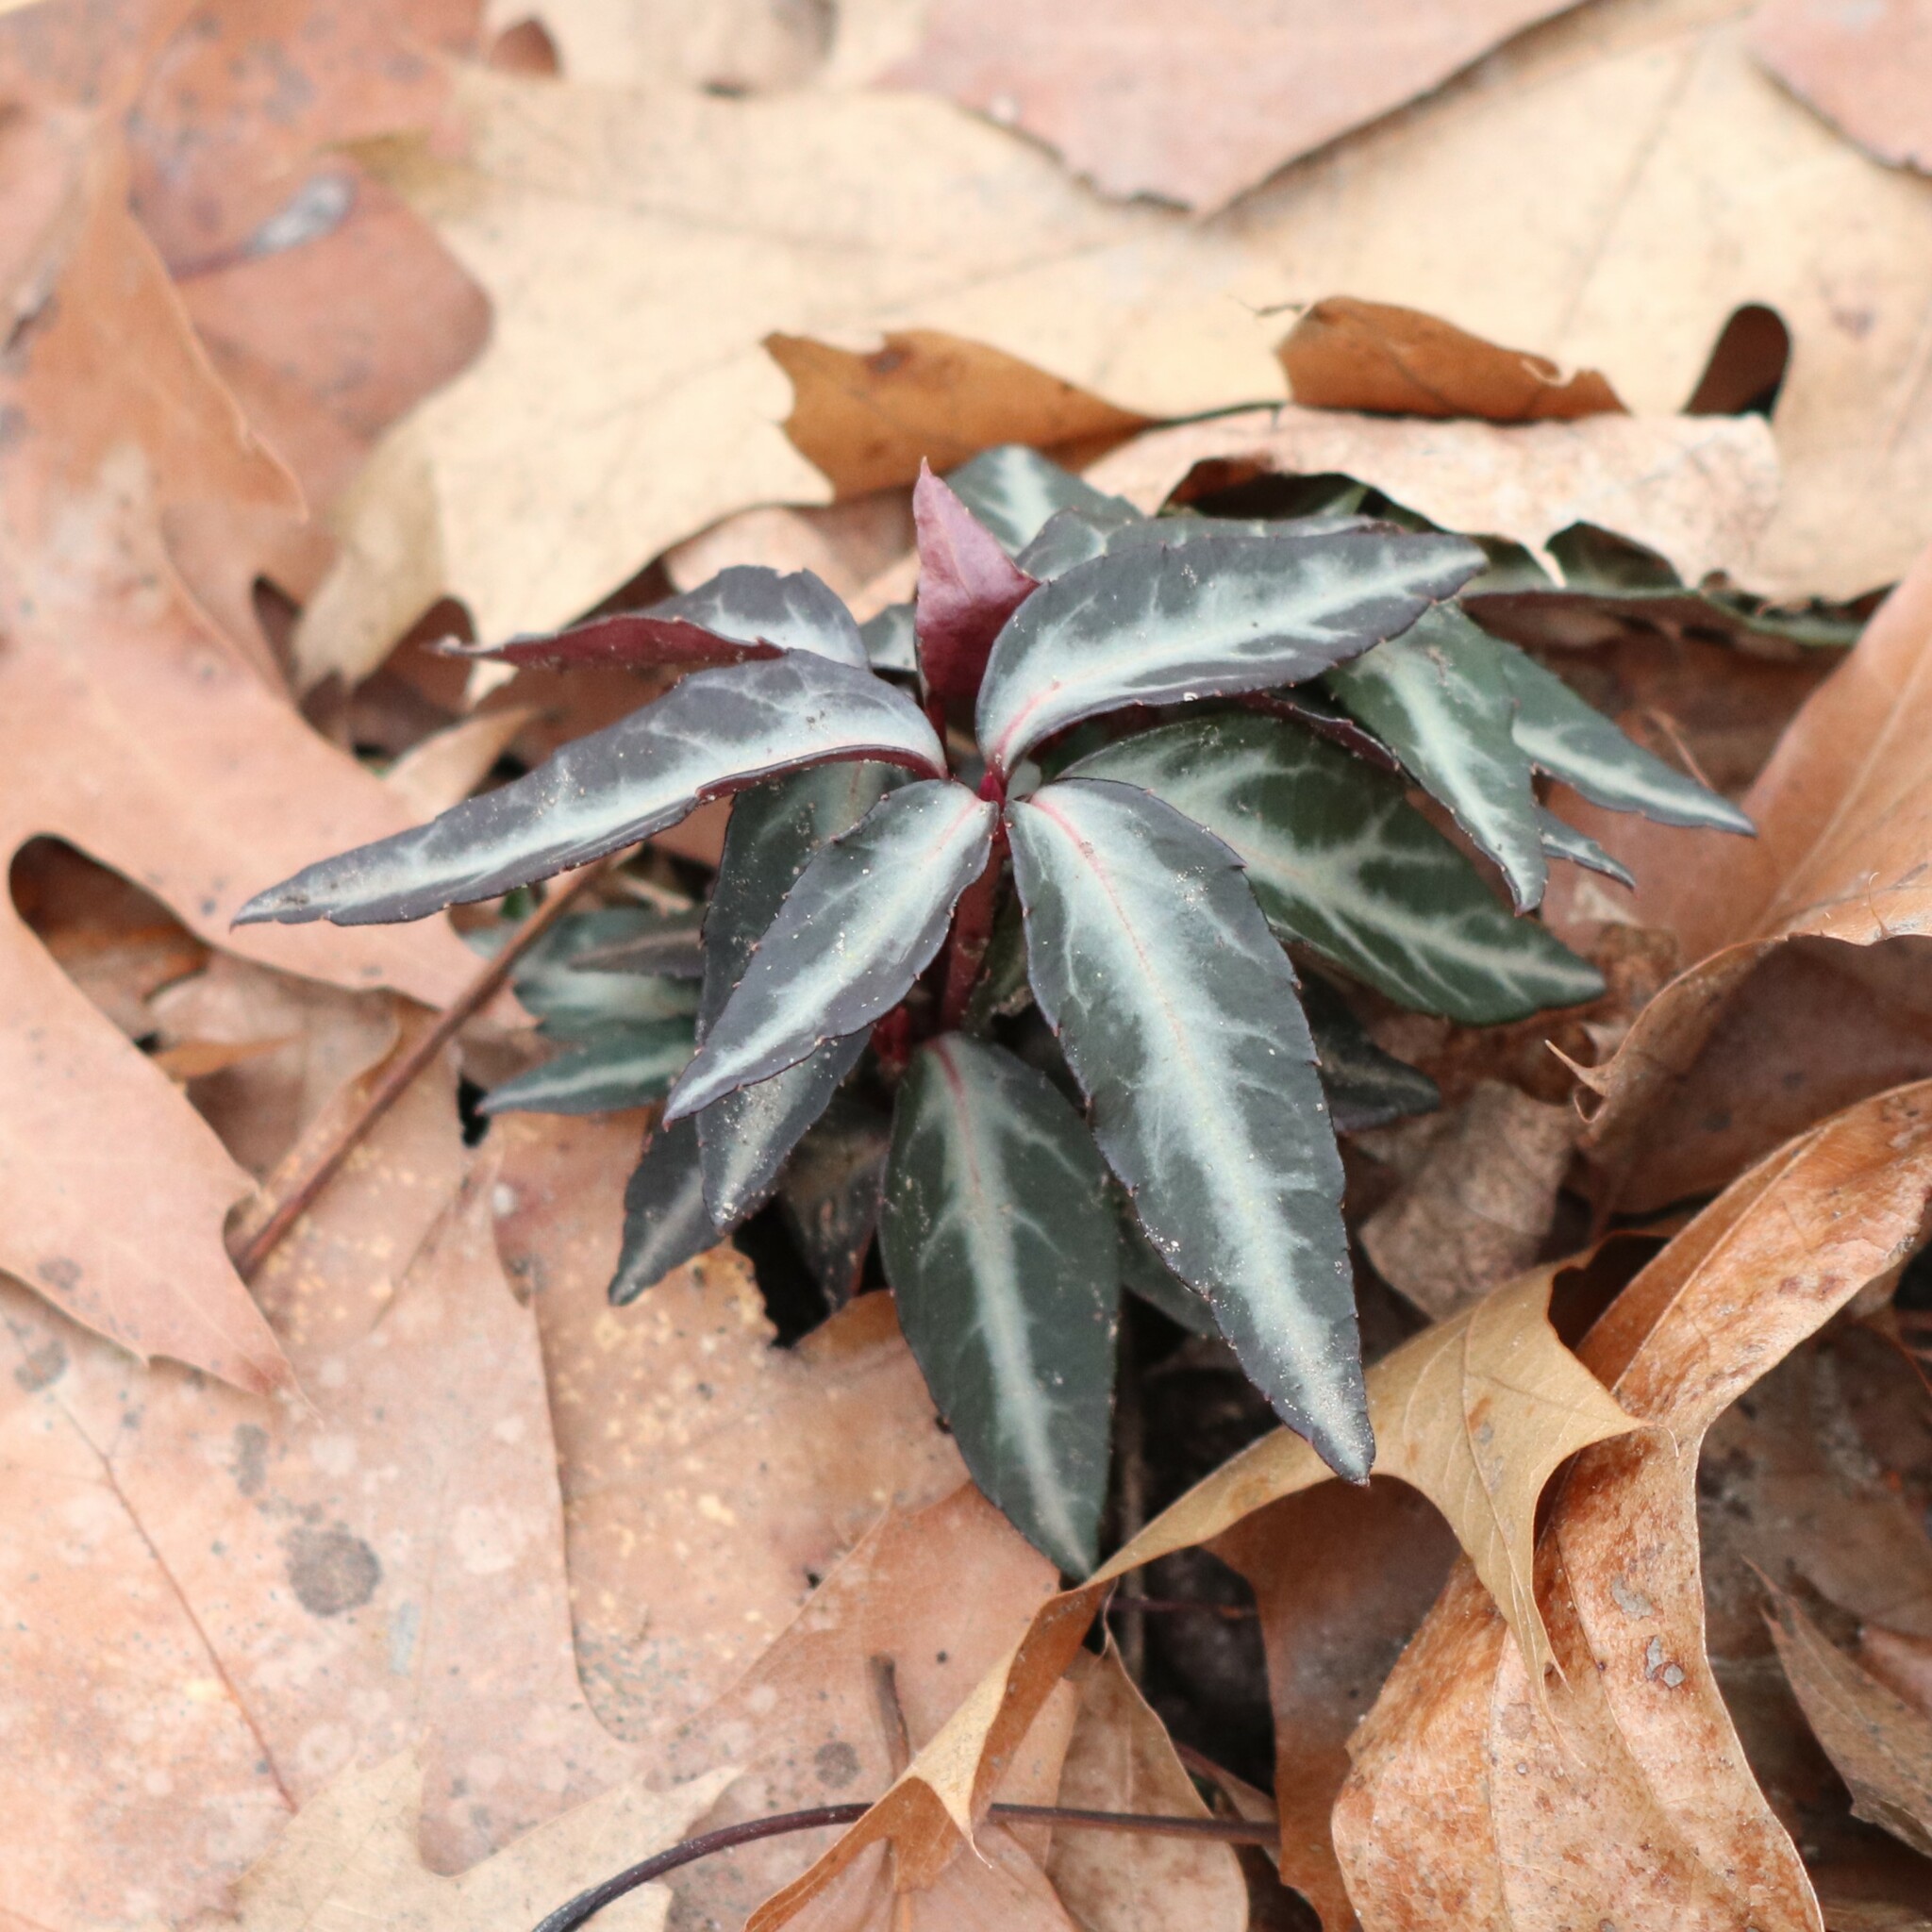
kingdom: Plantae
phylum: Tracheophyta
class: Magnoliopsida
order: Ericales
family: Ericaceae
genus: Chimaphila
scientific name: Chimaphila maculata
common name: Spotted pipsissewa
